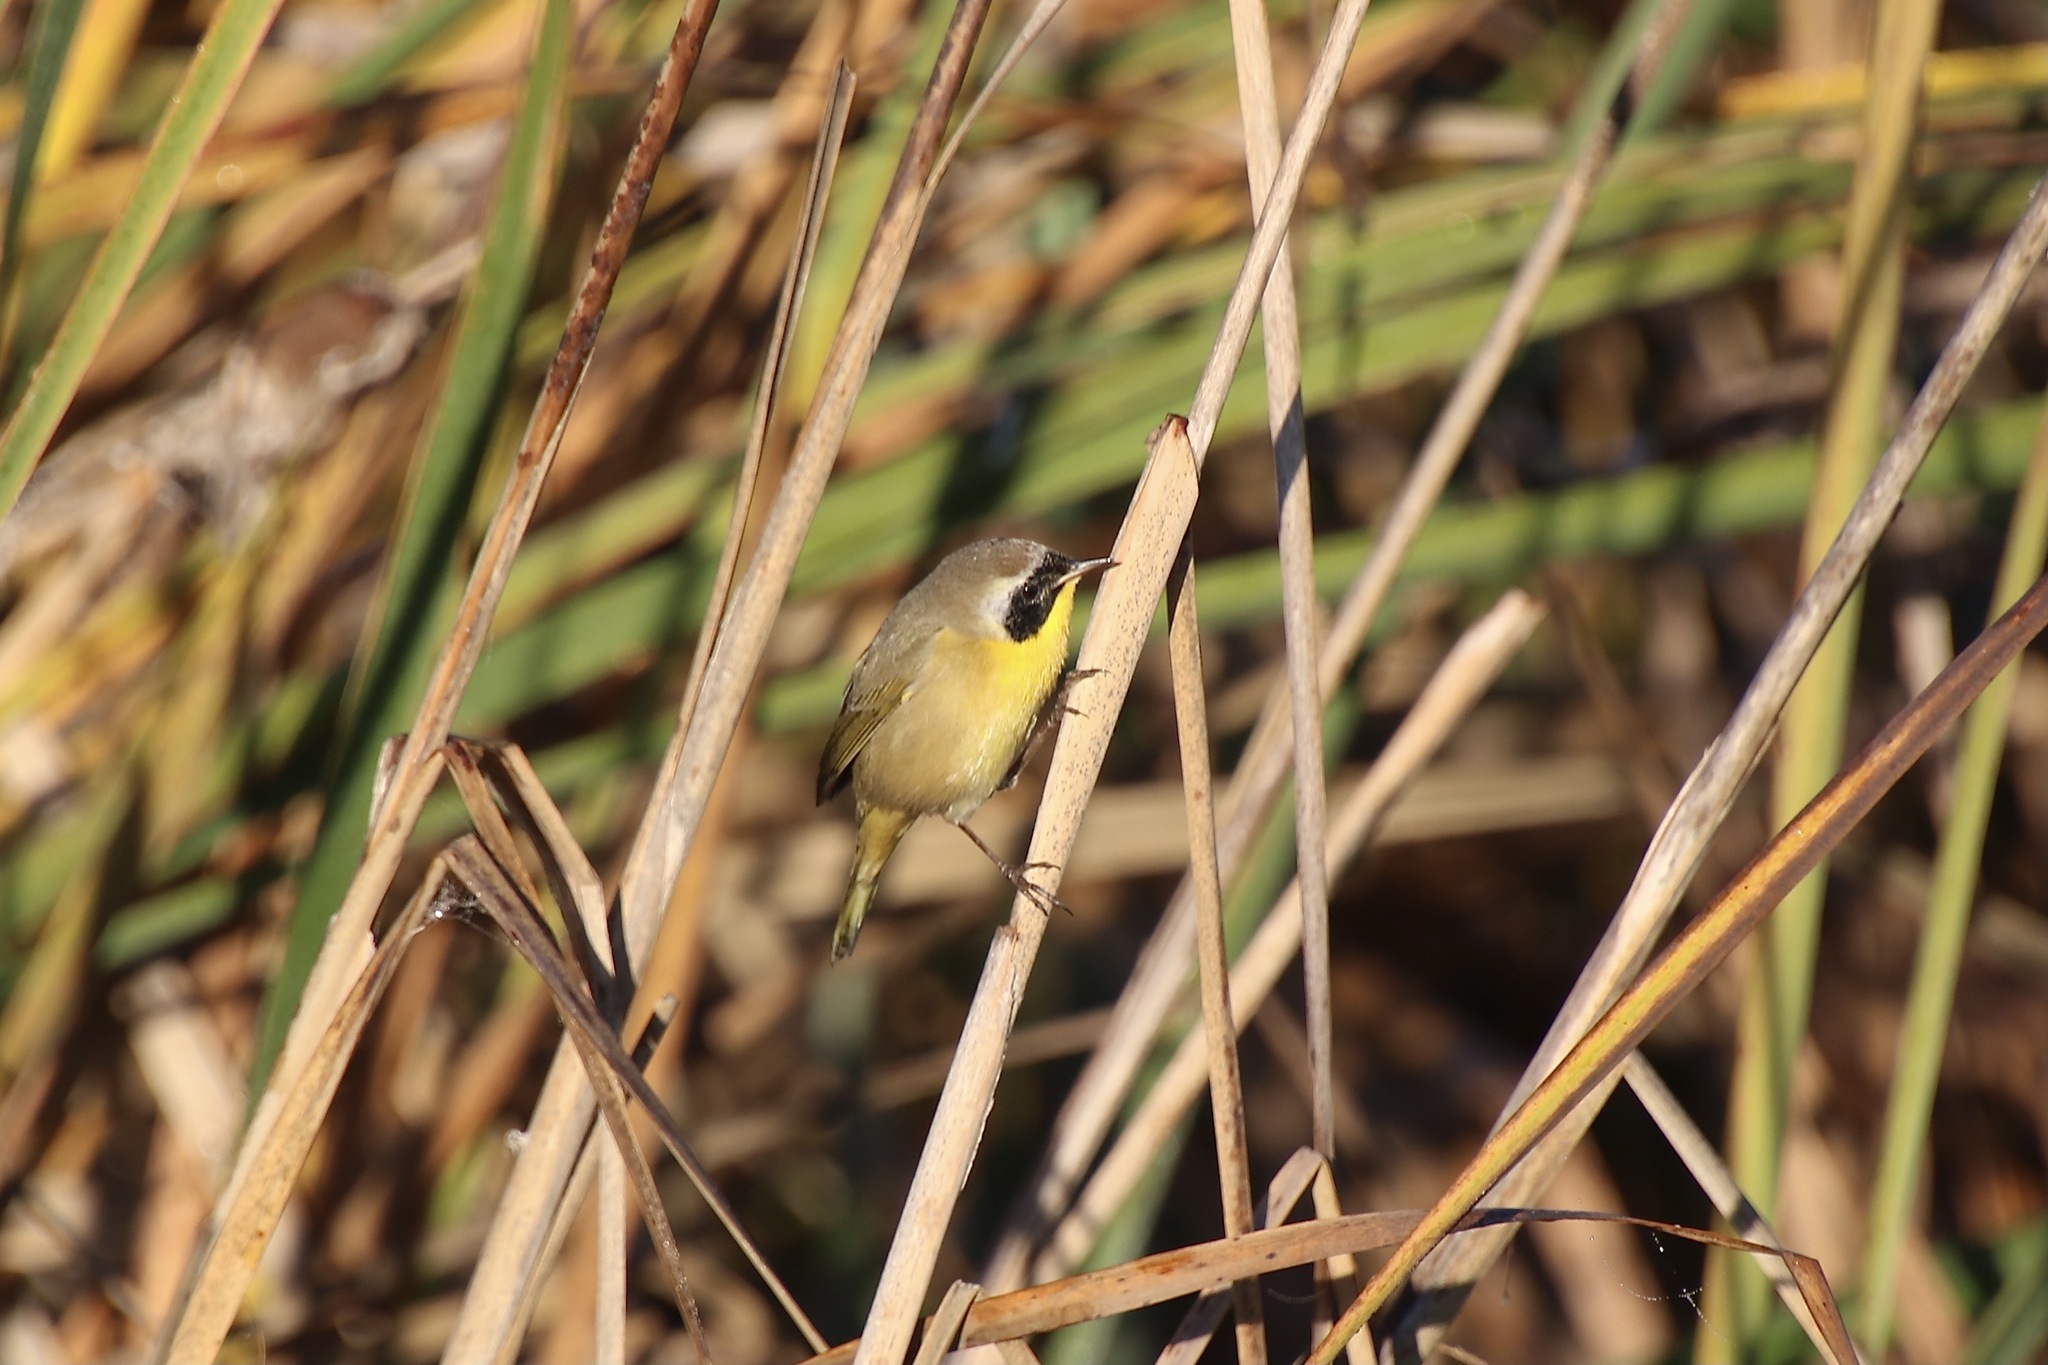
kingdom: Animalia
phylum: Chordata
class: Aves
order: Passeriformes
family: Parulidae
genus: Geothlypis
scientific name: Geothlypis trichas
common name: Common yellowthroat
